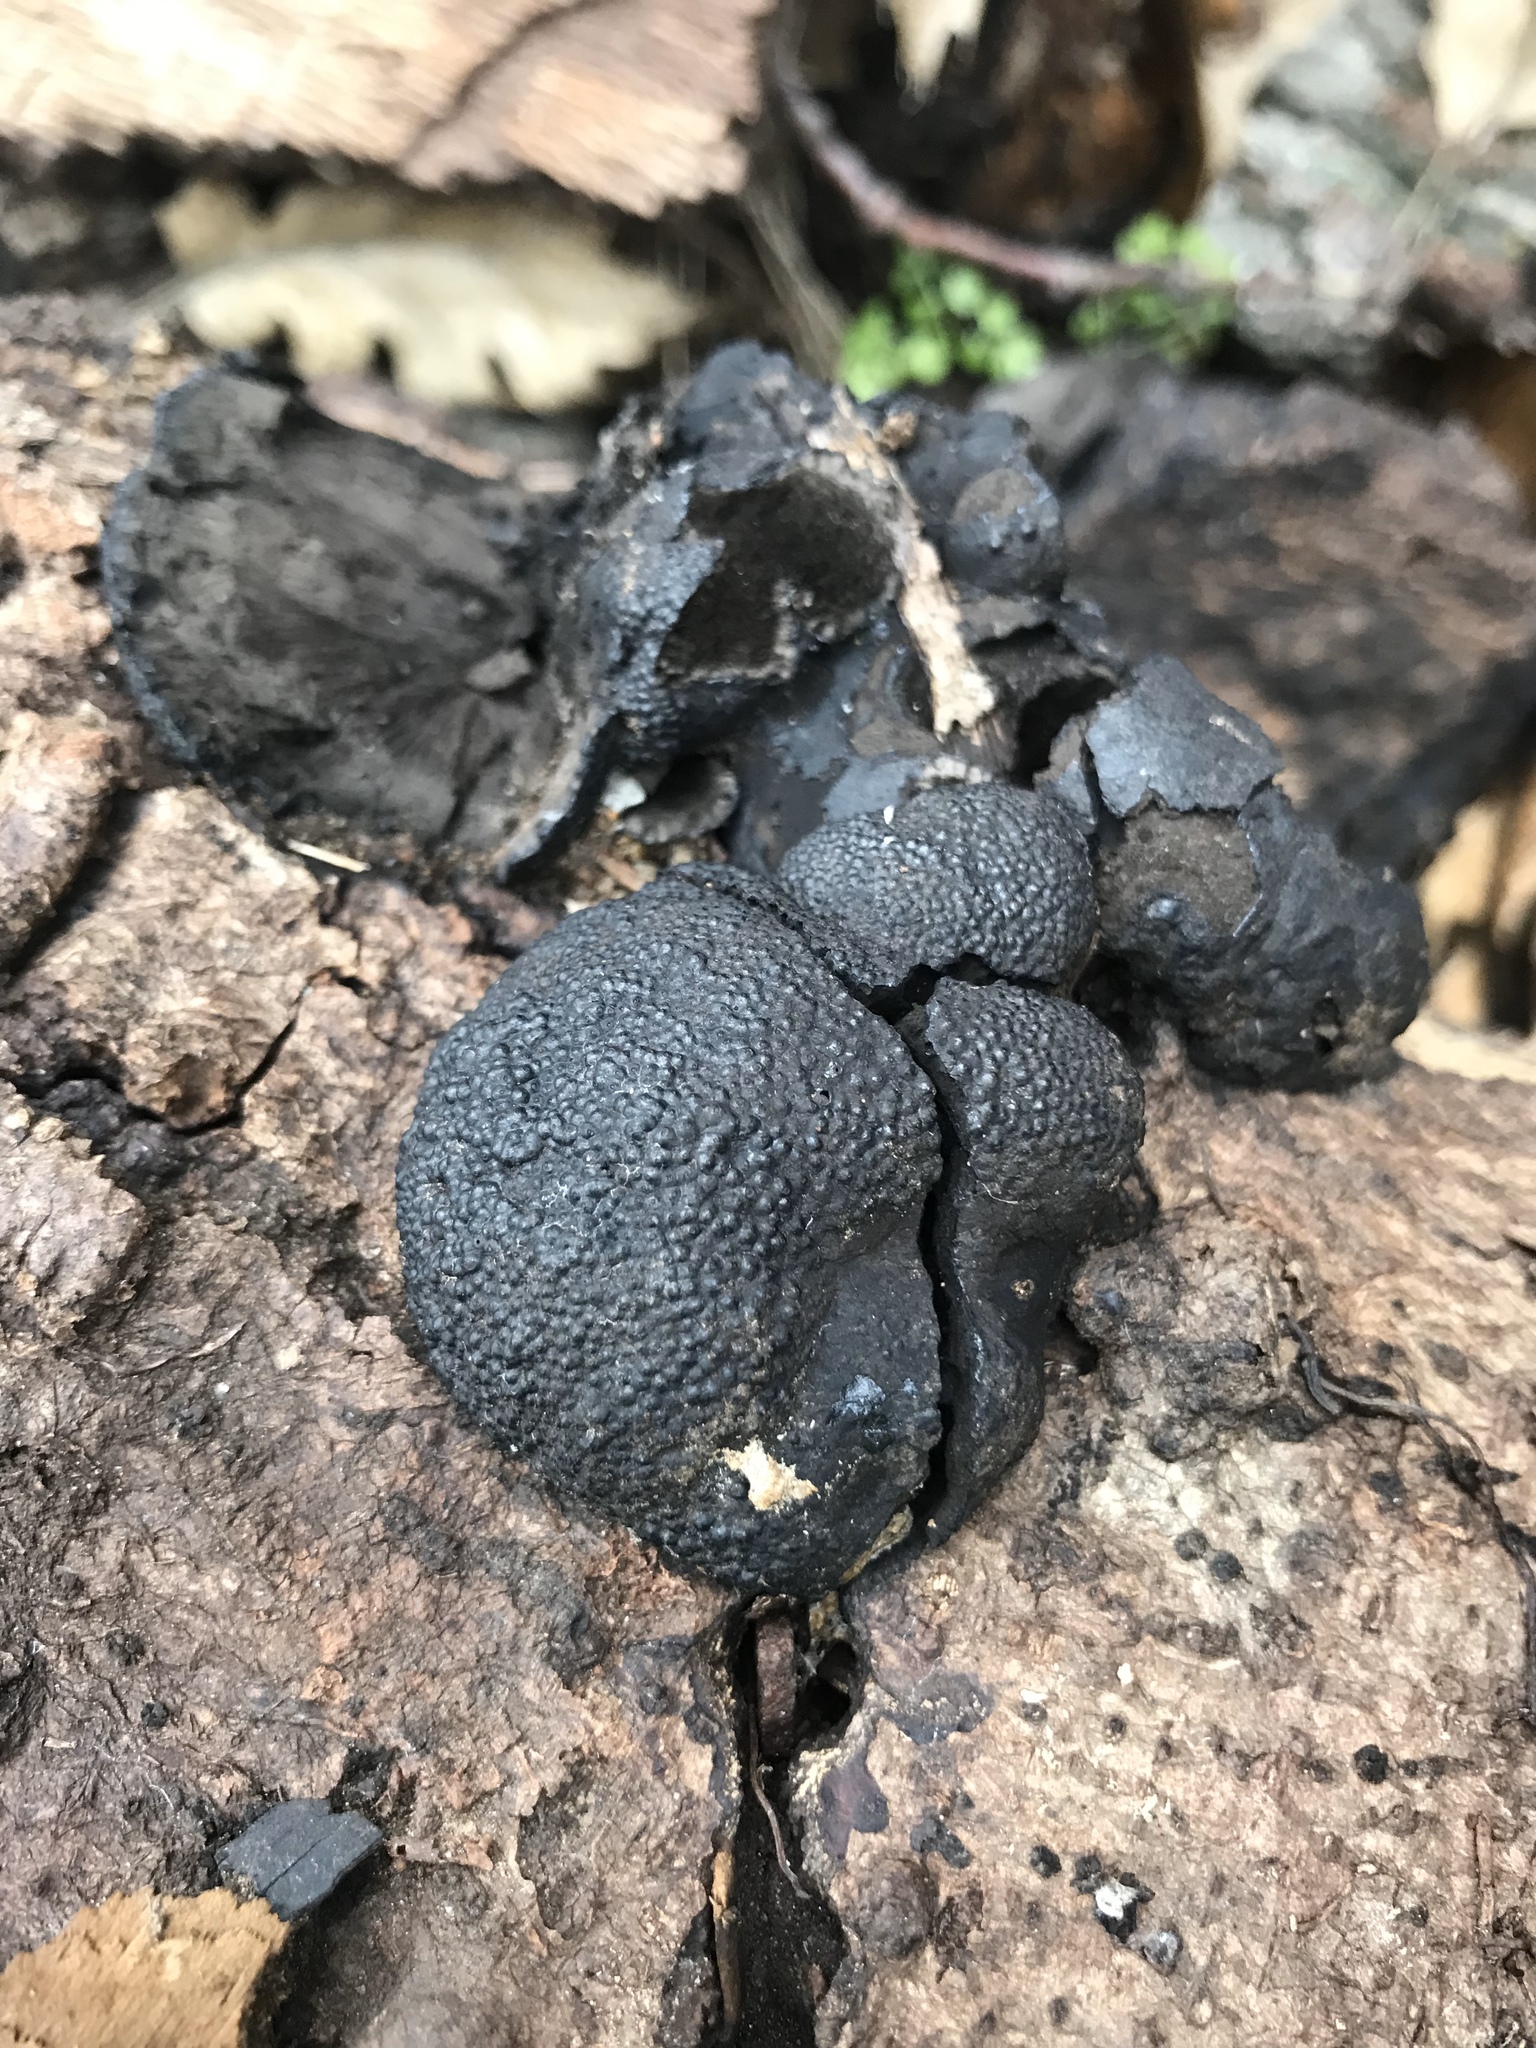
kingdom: Fungi
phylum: Ascomycota
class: Sordariomycetes
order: Xylariales
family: Hypoxylaceae
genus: Annulohypoxylon
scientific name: Annulohypoxylon thouarsianum
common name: Cramp balls
